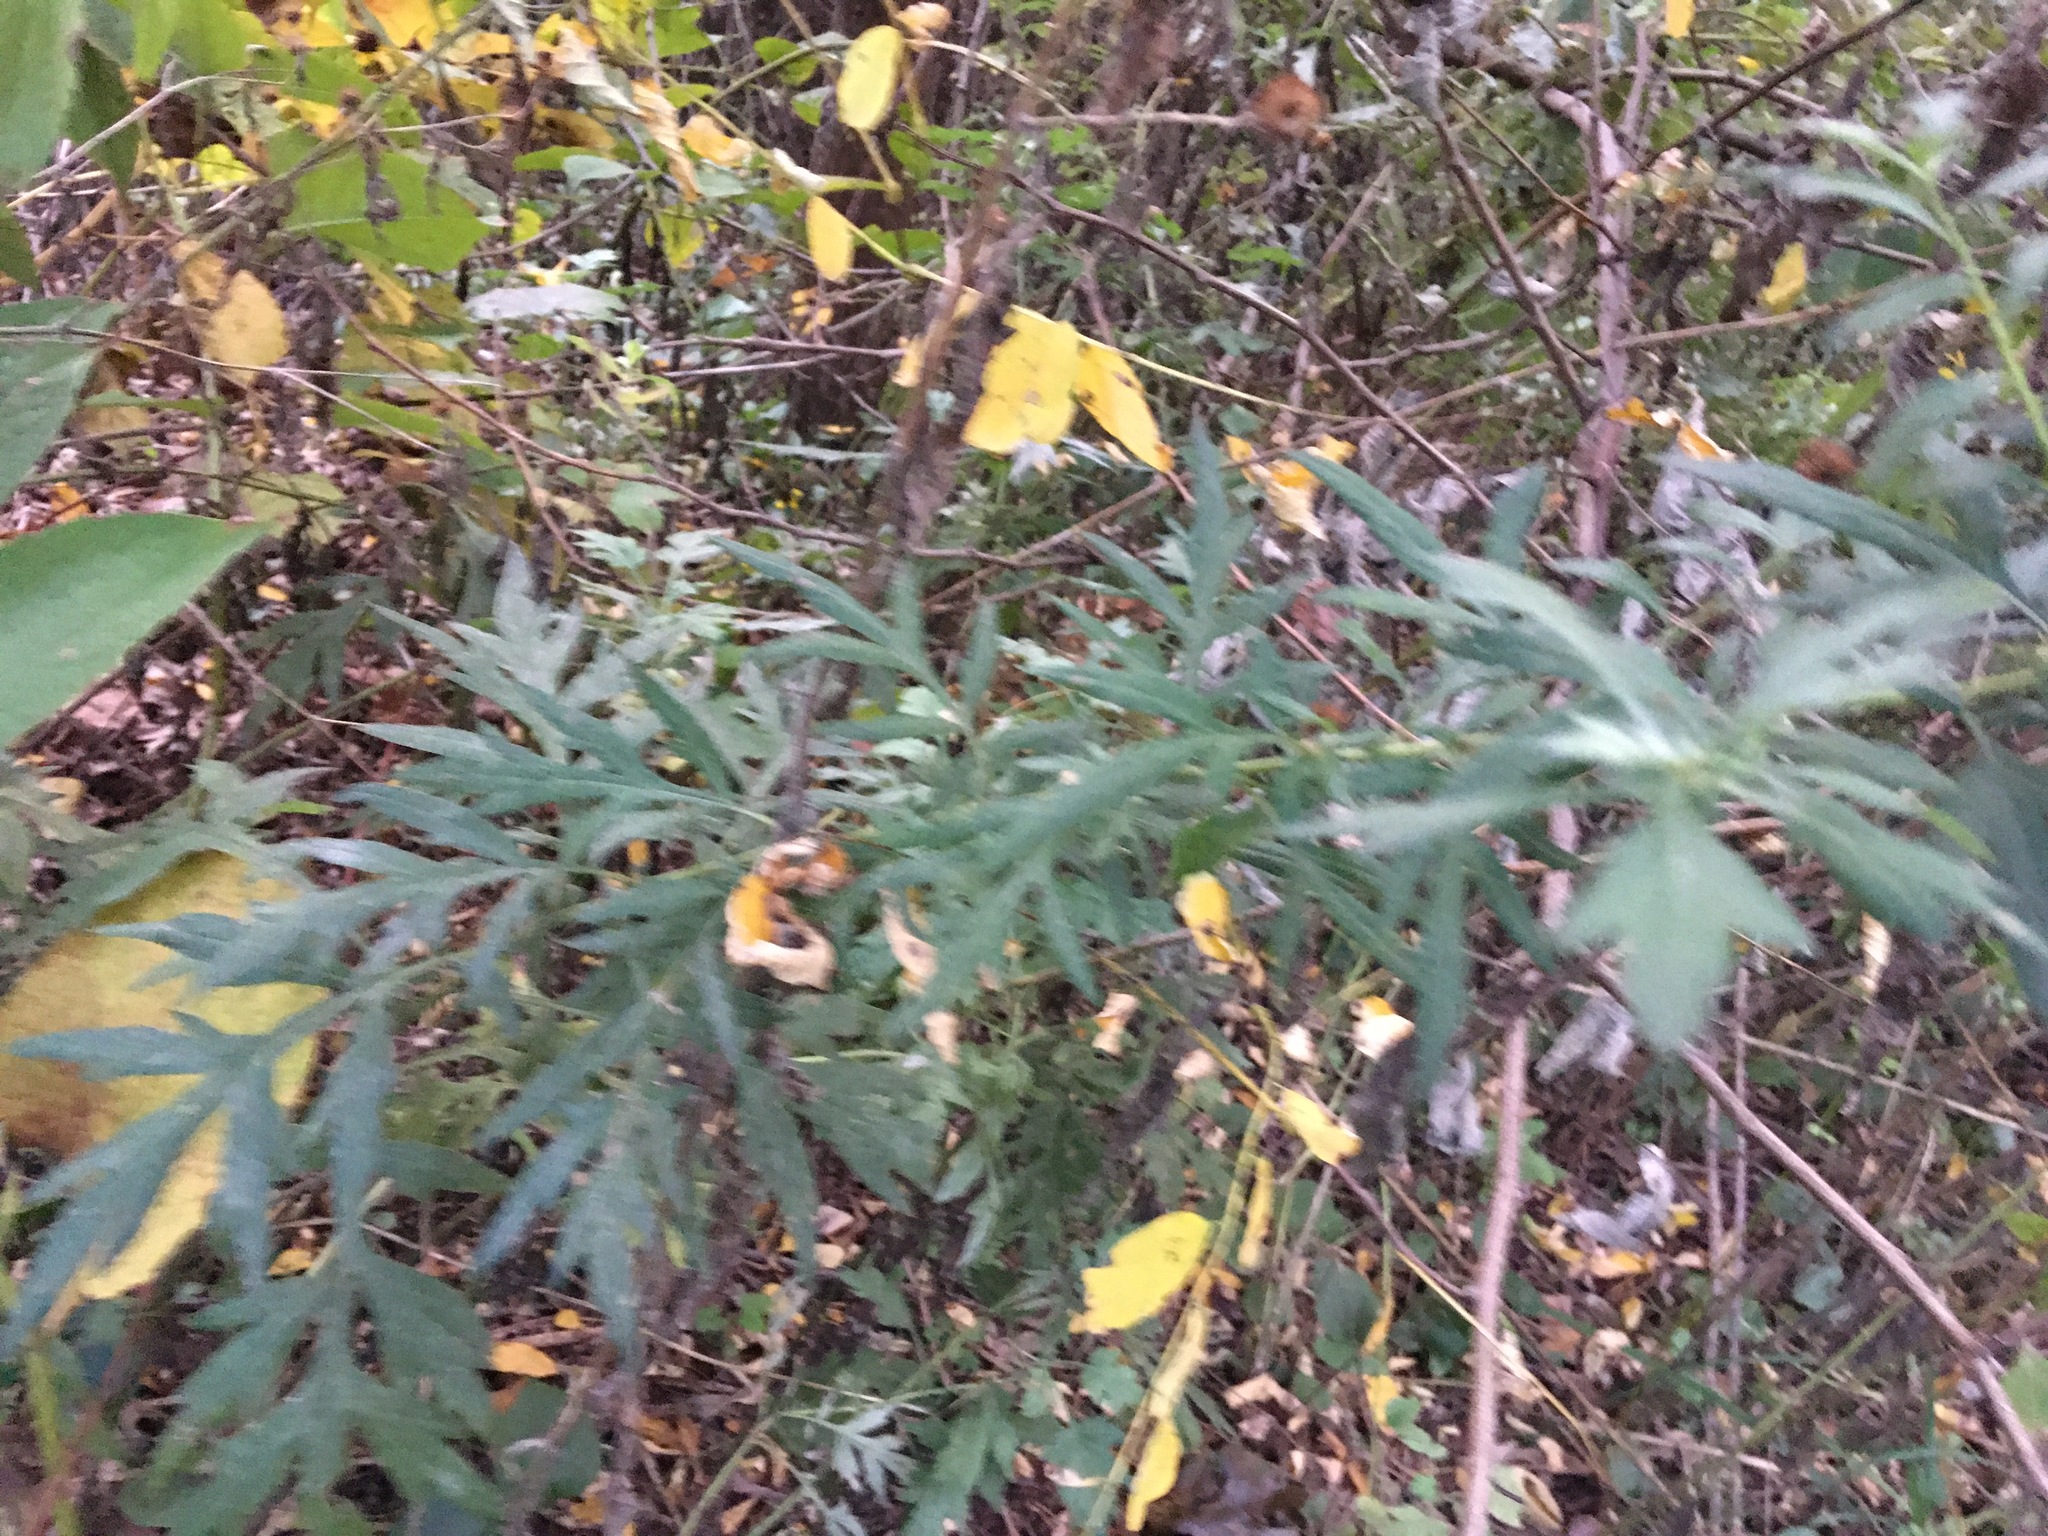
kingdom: Plantae
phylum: Tracheophyta
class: Magnoliopsida
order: Asterales
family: Asteraceae
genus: Artemisia
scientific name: Artemisia vulgaris
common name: Mugwort
